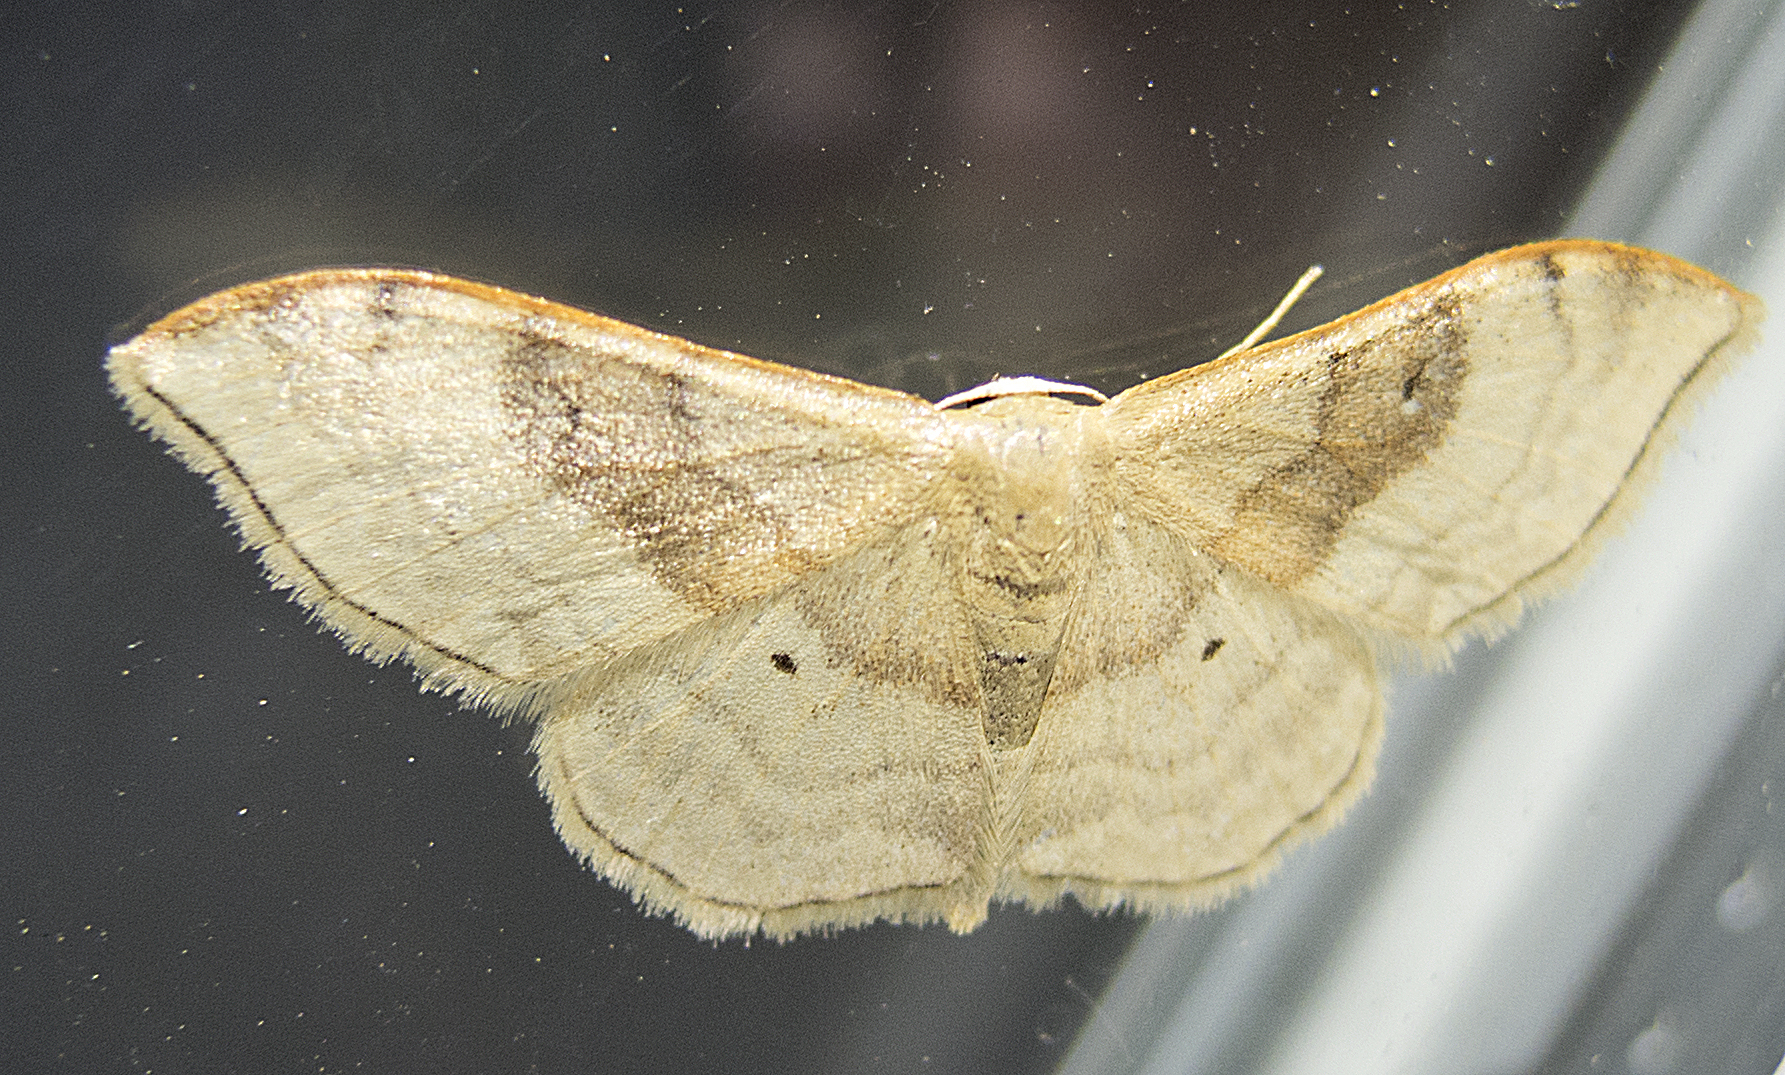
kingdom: Animalia
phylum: Arthropoda
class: Insecta
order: Lepidoptera
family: Geometridae
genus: Idaea
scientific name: Idaea degeneraria
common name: Portland ribbon wave
